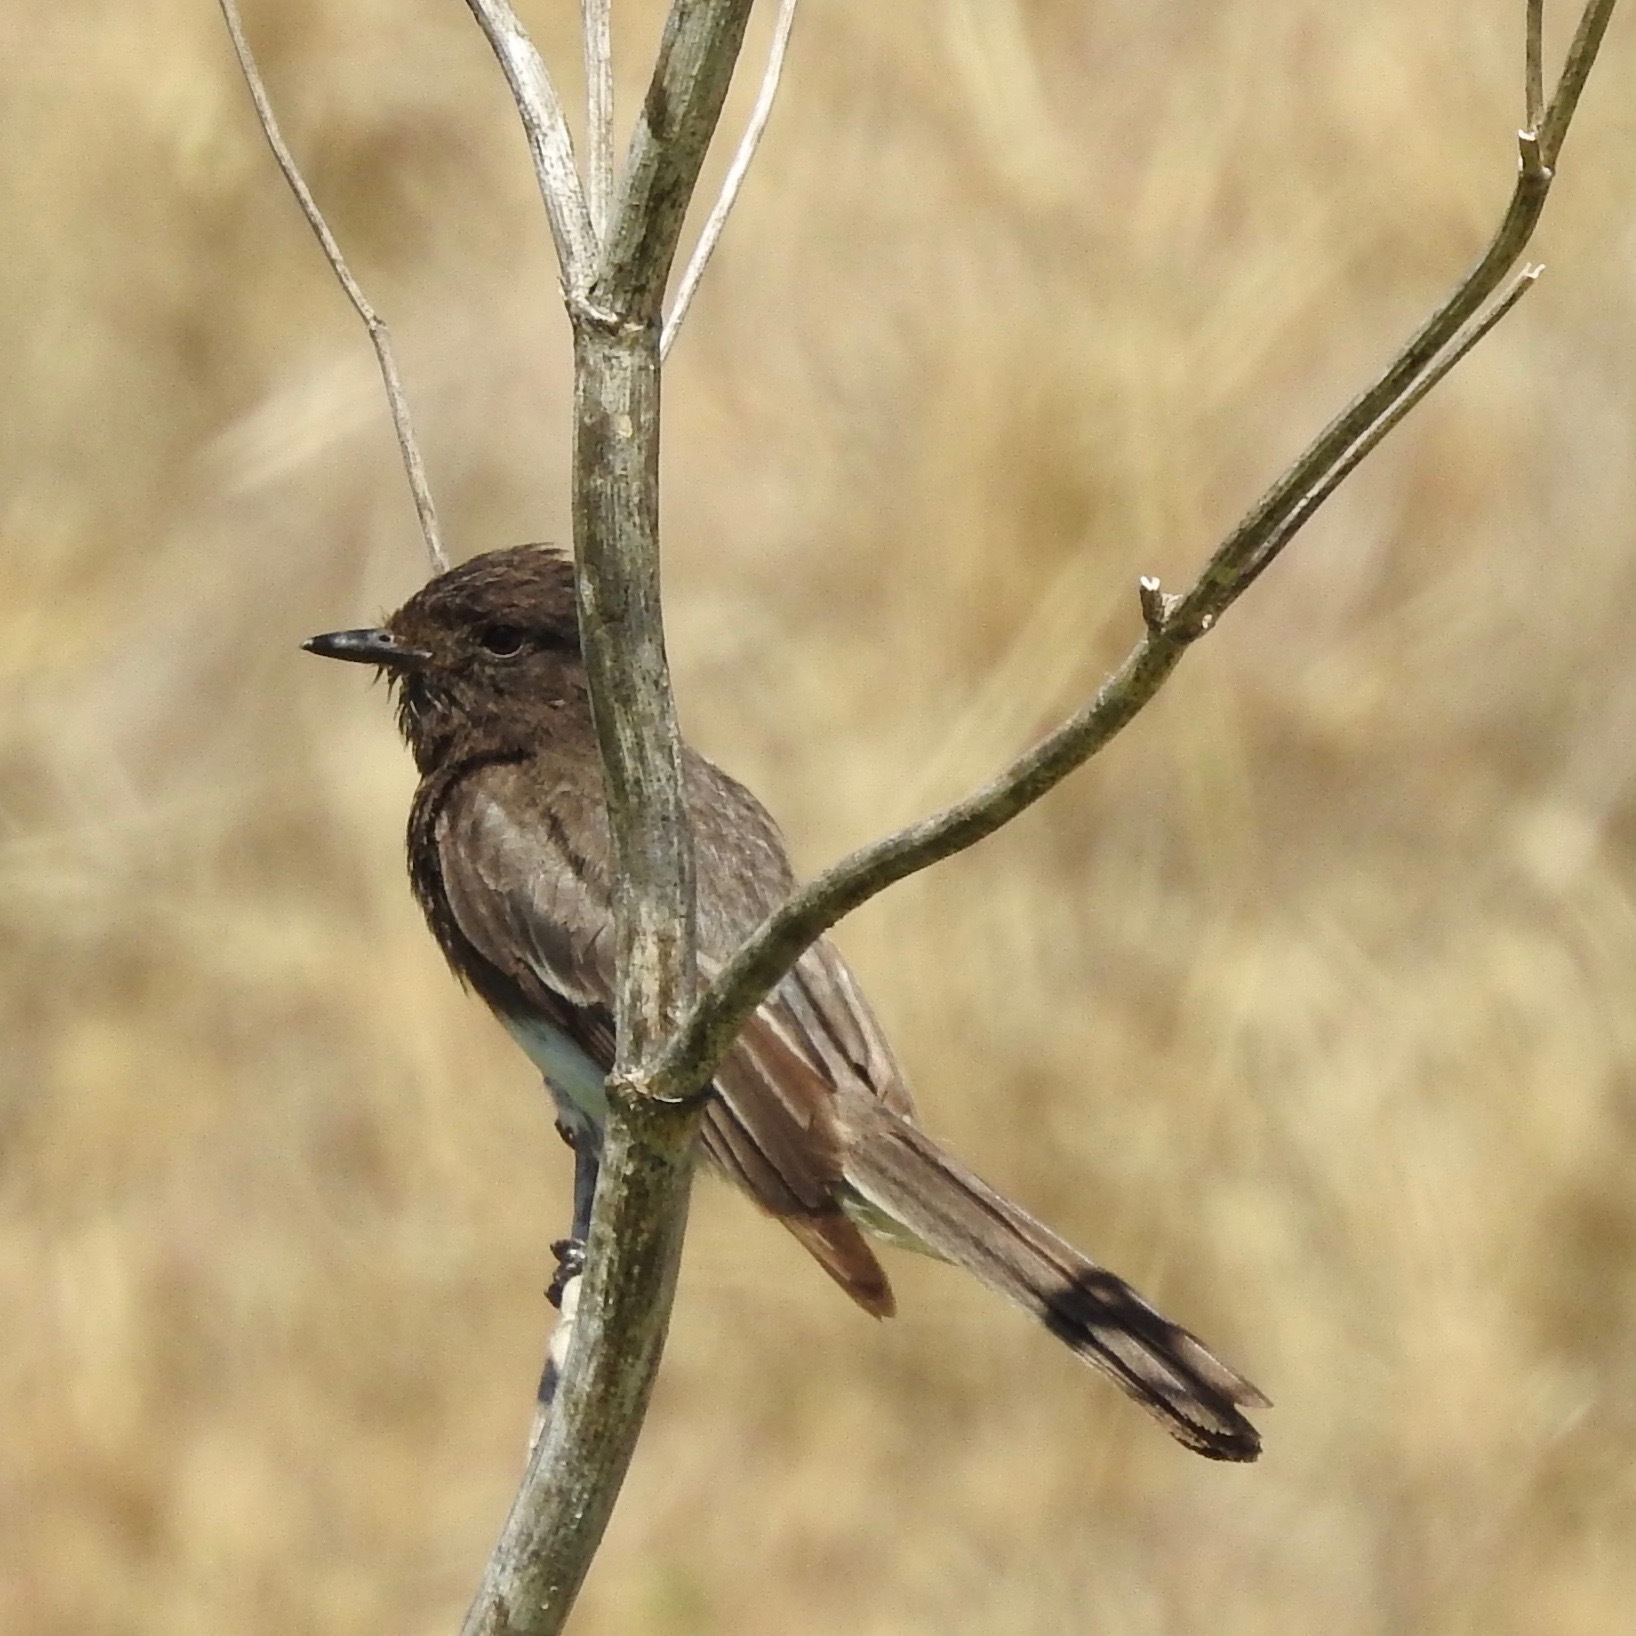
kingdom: Animalia
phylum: Chordata
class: Aves
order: Passeriformes
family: Tyrannidae
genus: Sayornis
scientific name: Sayornis nigricans
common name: Black phoebe
